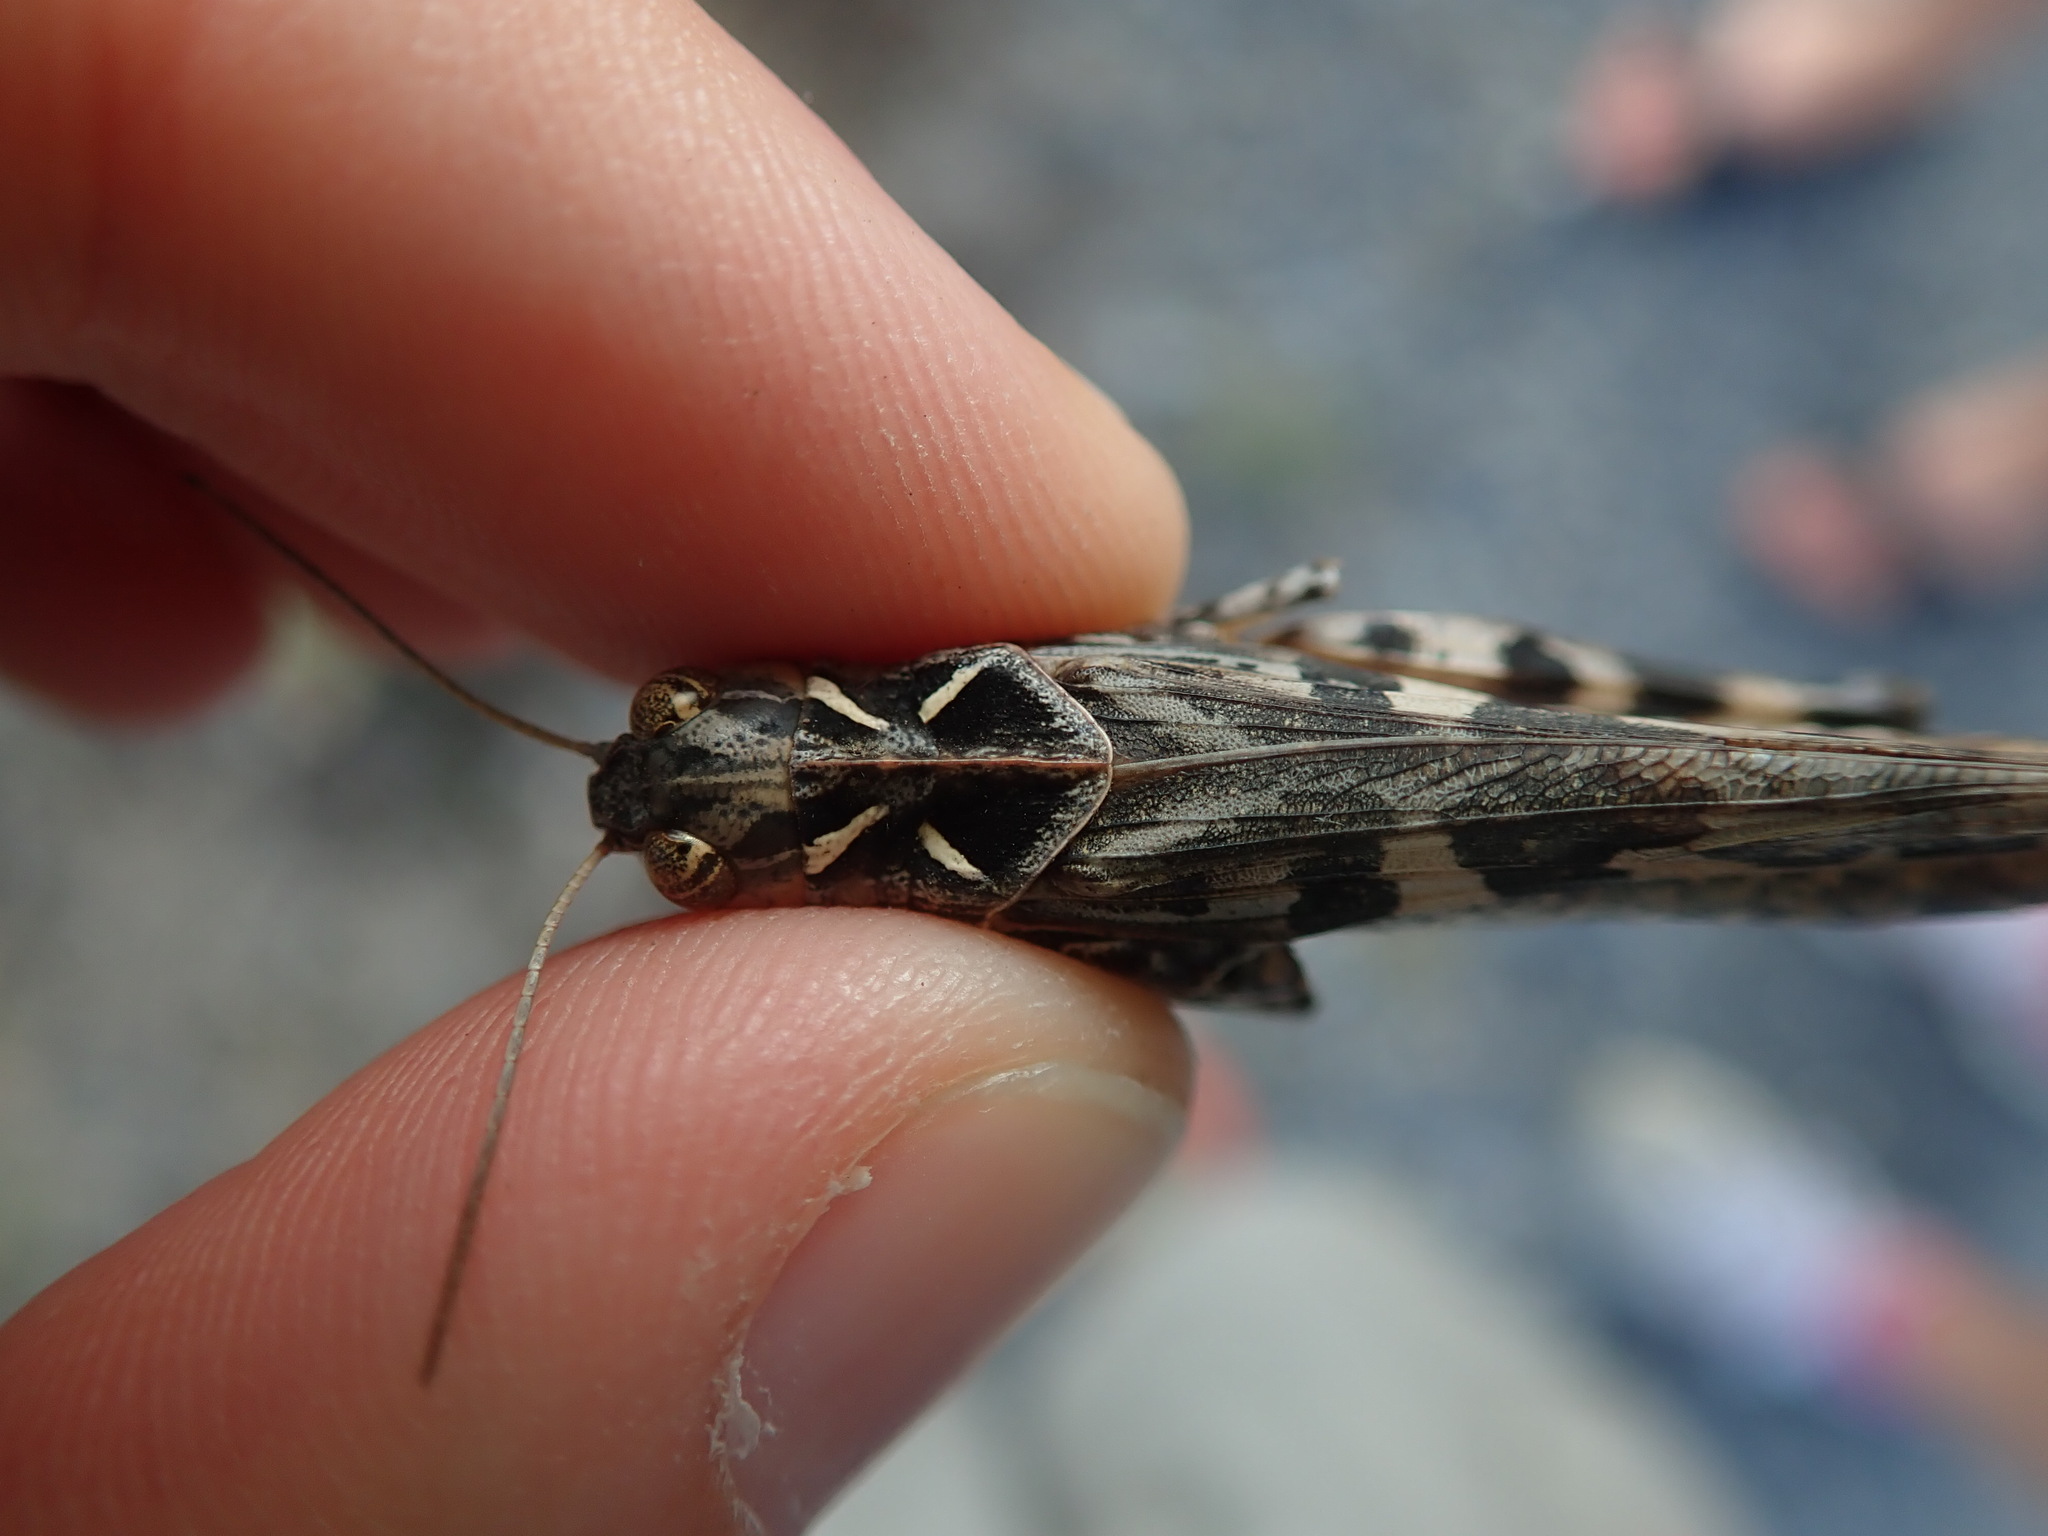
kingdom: Animalia
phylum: Arthropoda
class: Insecta
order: Orthoptera
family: Acrididae
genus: Oedaleus
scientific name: Oedaleus decorus
